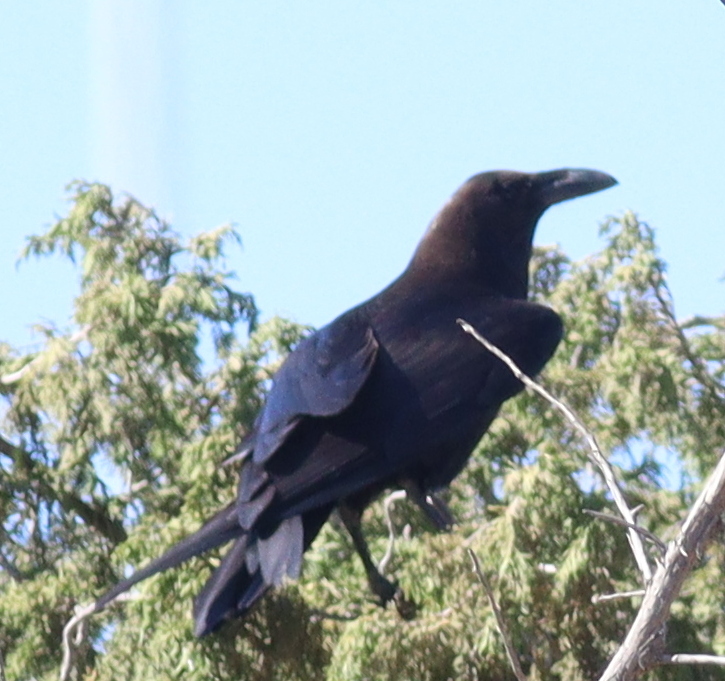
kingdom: Animalia
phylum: Chordata
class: Aves
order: Passeriformes
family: Corvidae
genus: Corvus
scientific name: Corvus ruficollis
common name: Brown-necked raven
